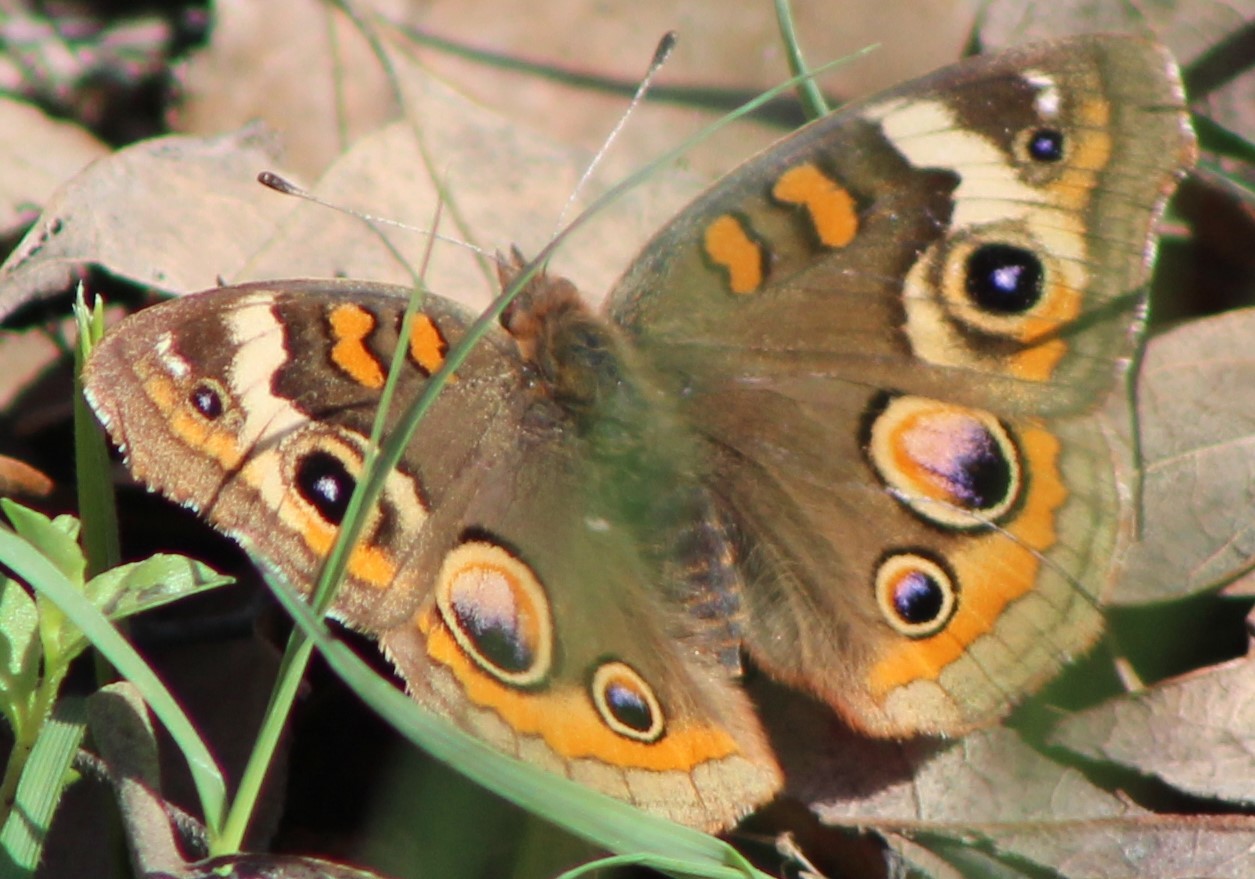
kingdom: Animalia
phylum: Arthropoda
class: Insecta
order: Lepidoptera
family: Nymphalidae
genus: Junonia
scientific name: Junonia coenia
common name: Common buckeye
